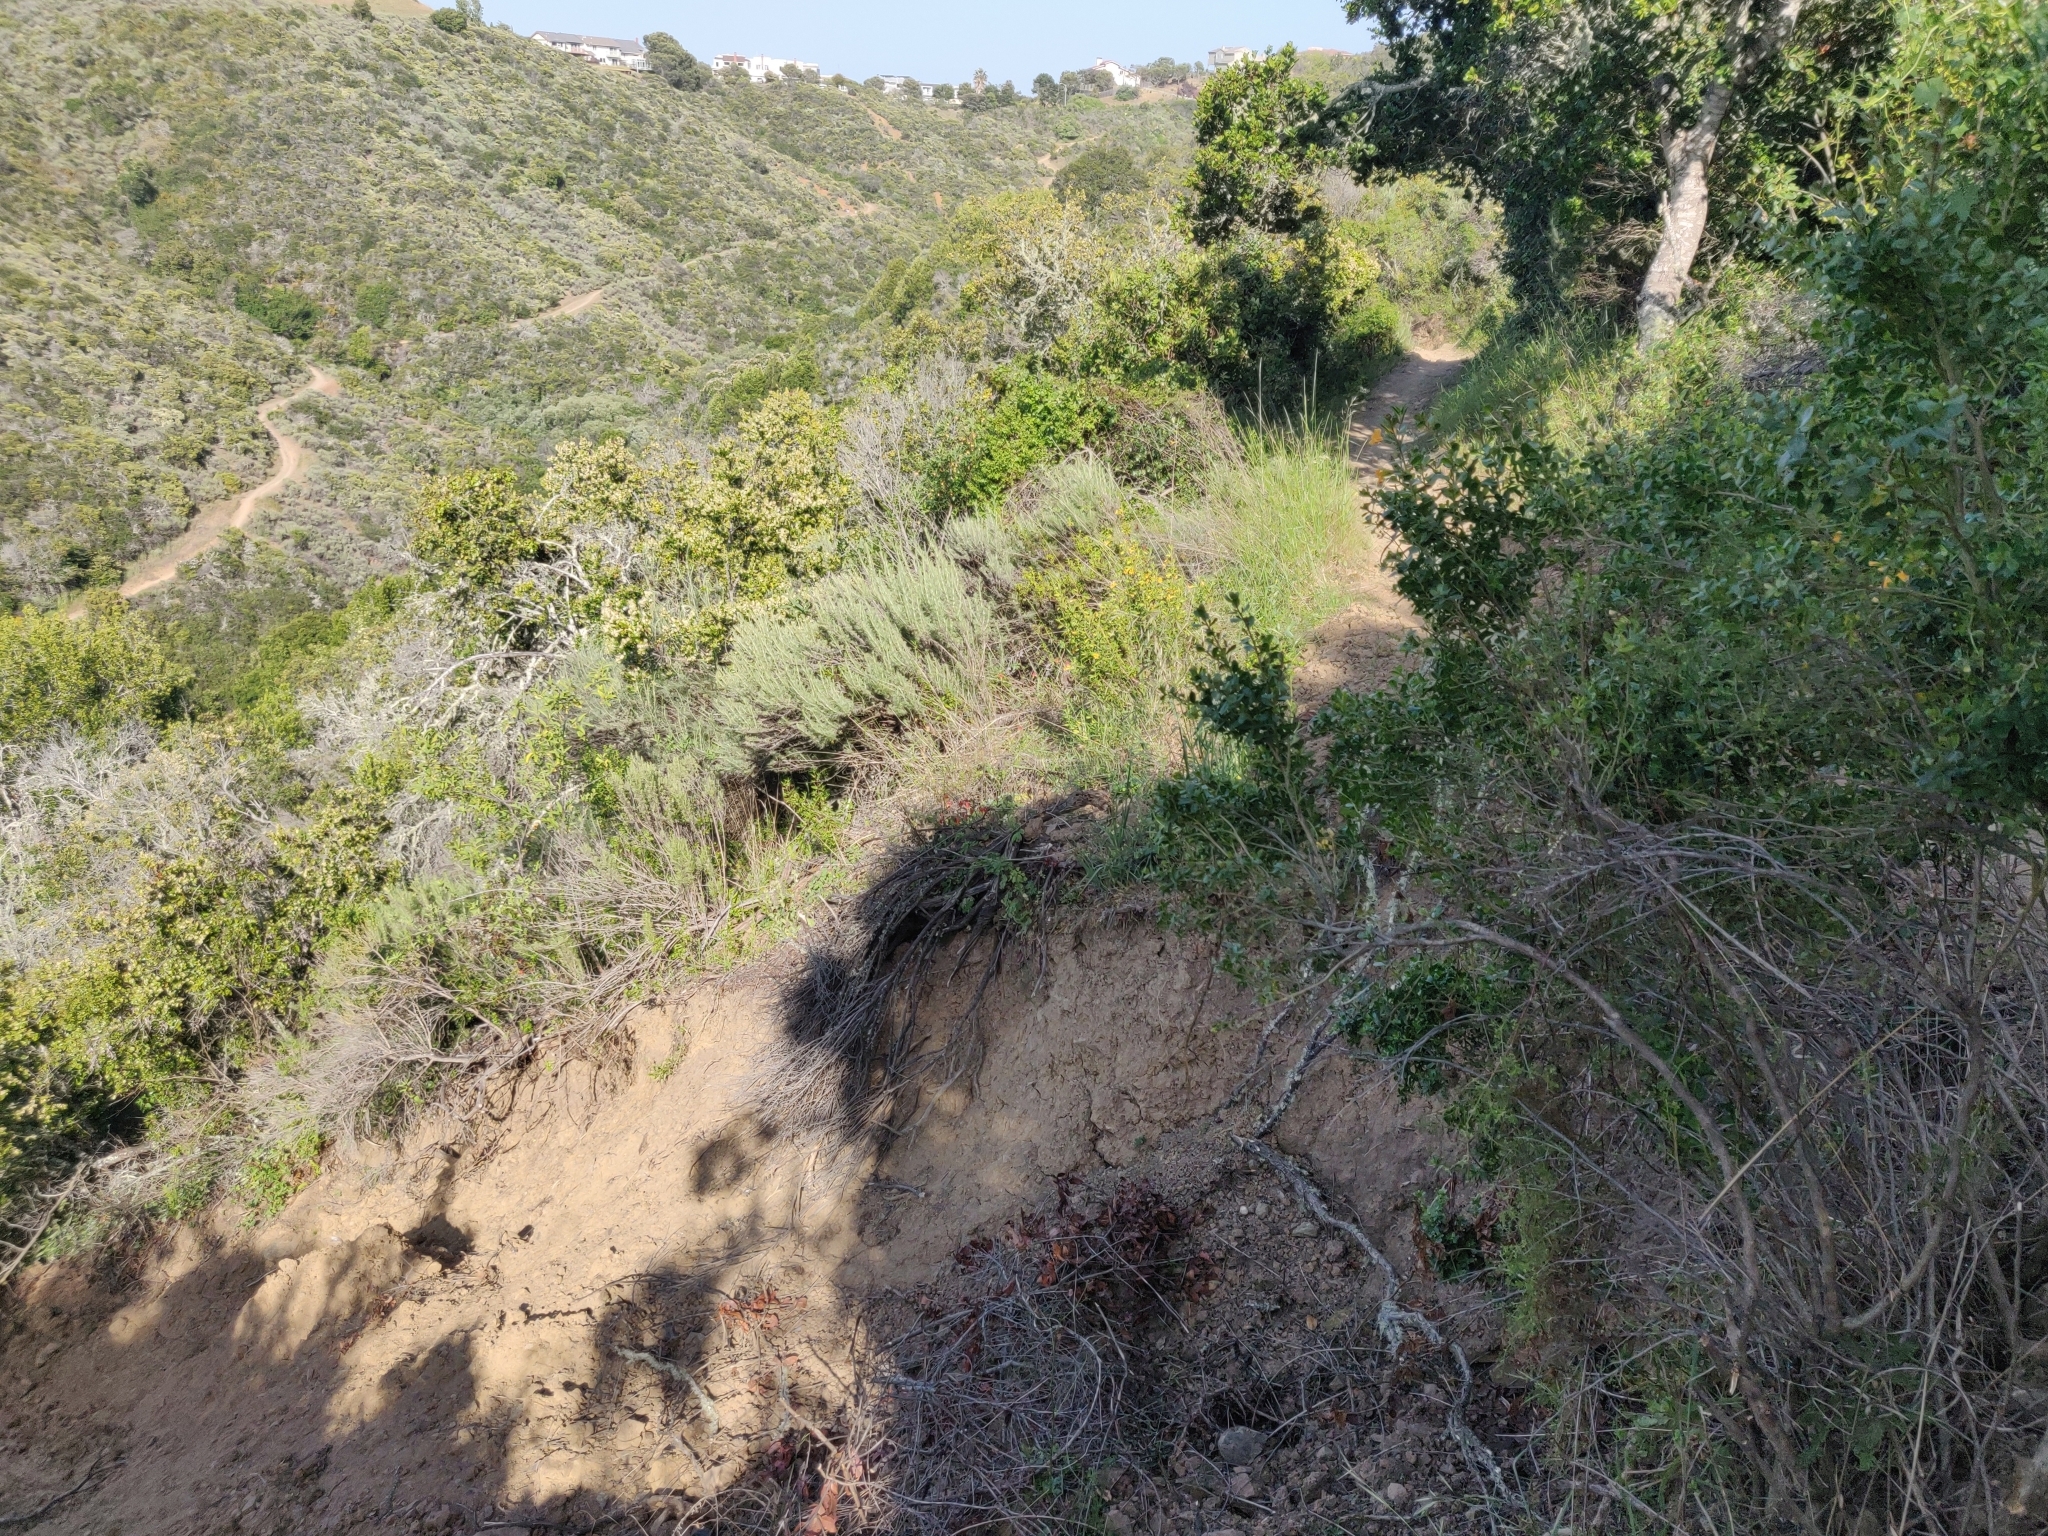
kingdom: Plantae
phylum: Tracheophyta
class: Magnoliopsida
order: Ranunculales
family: Ranunculaceae
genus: Aquilegia
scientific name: Aquilegia formosa
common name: Sitka columbine
